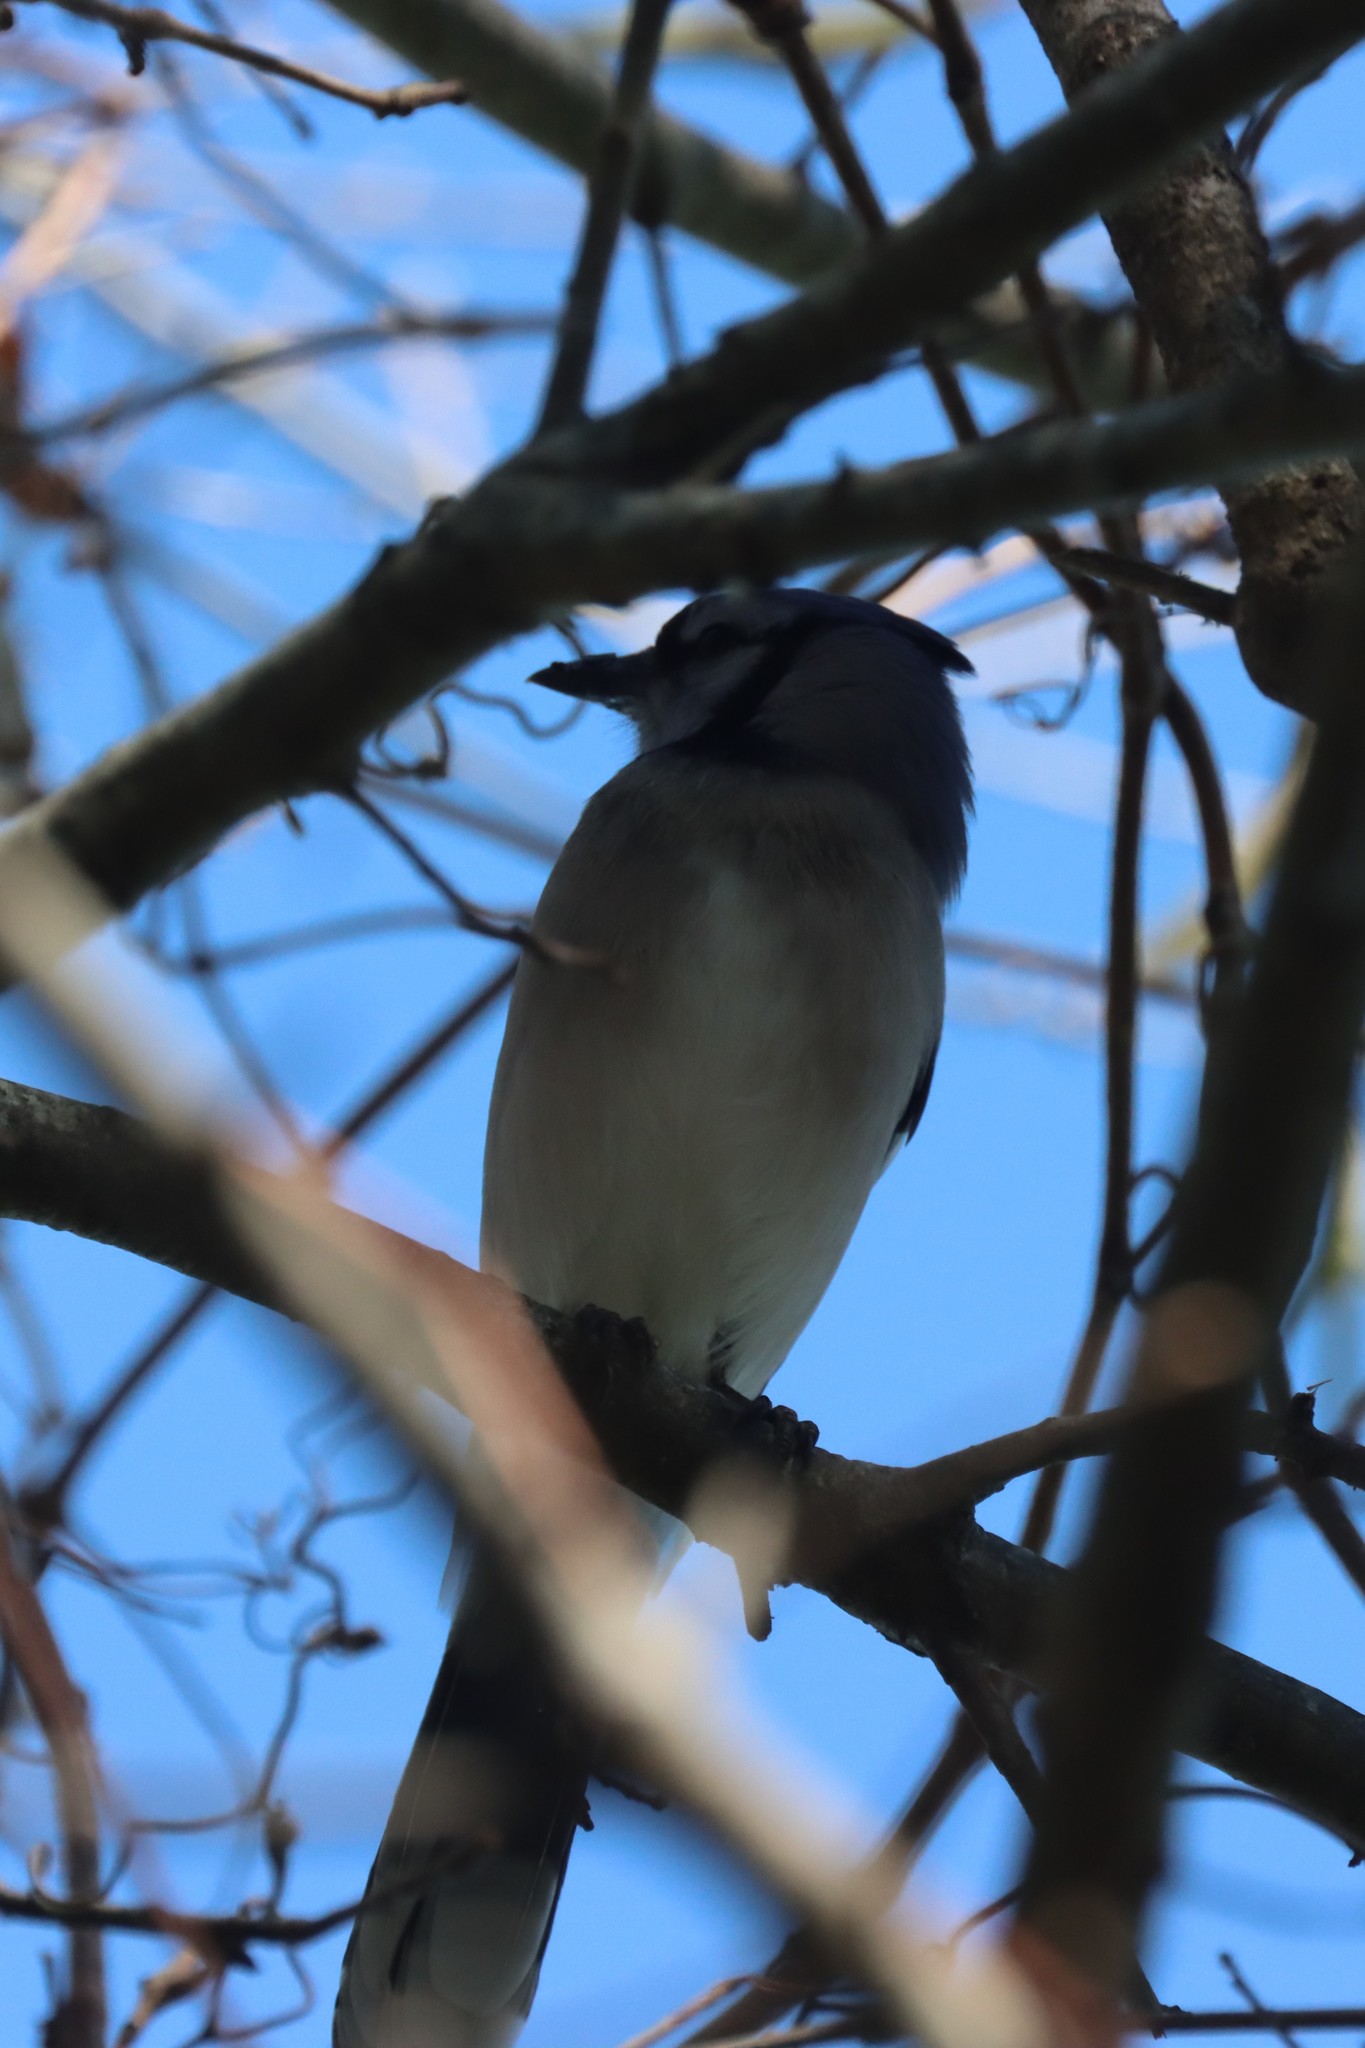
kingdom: Animalia
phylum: Chordata
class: Aves
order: Passeriformes
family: Corvidae
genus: Cyanocitta
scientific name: Cyanocitta cristata
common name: Blue jay
